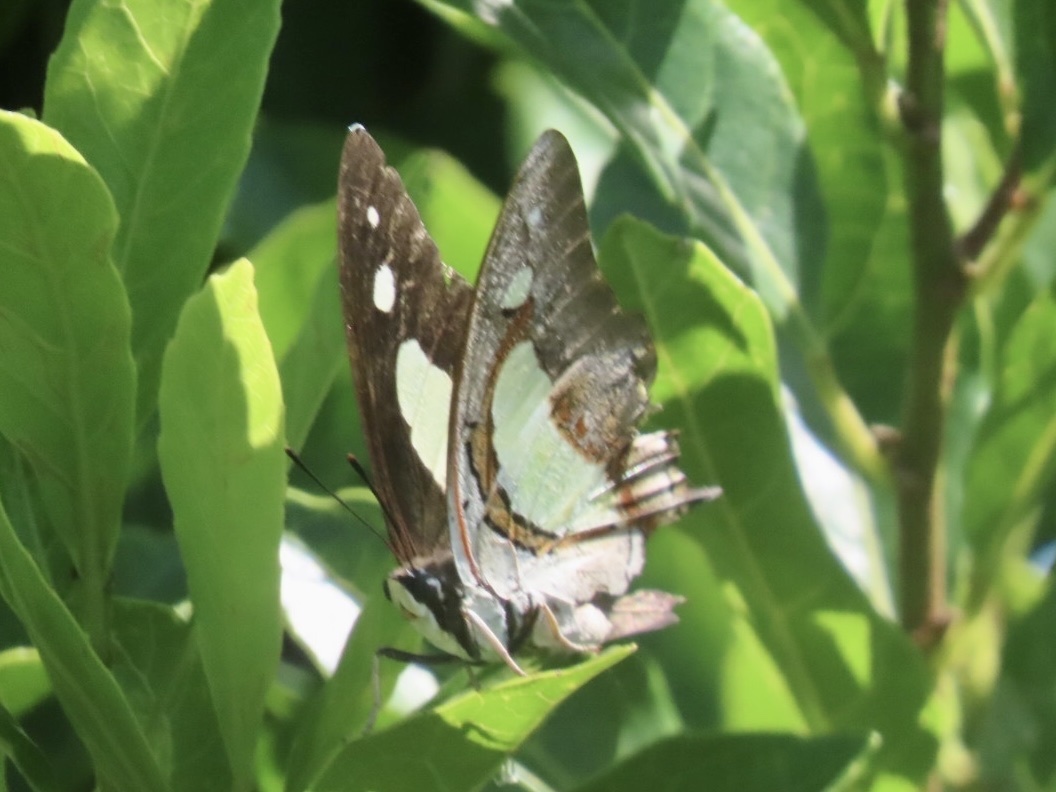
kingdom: Animalia
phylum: Arthropoda
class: Insecta
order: Lepidoptera
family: Nymphalidae
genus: Polyura
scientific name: Polyura athamas
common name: Common nawab
